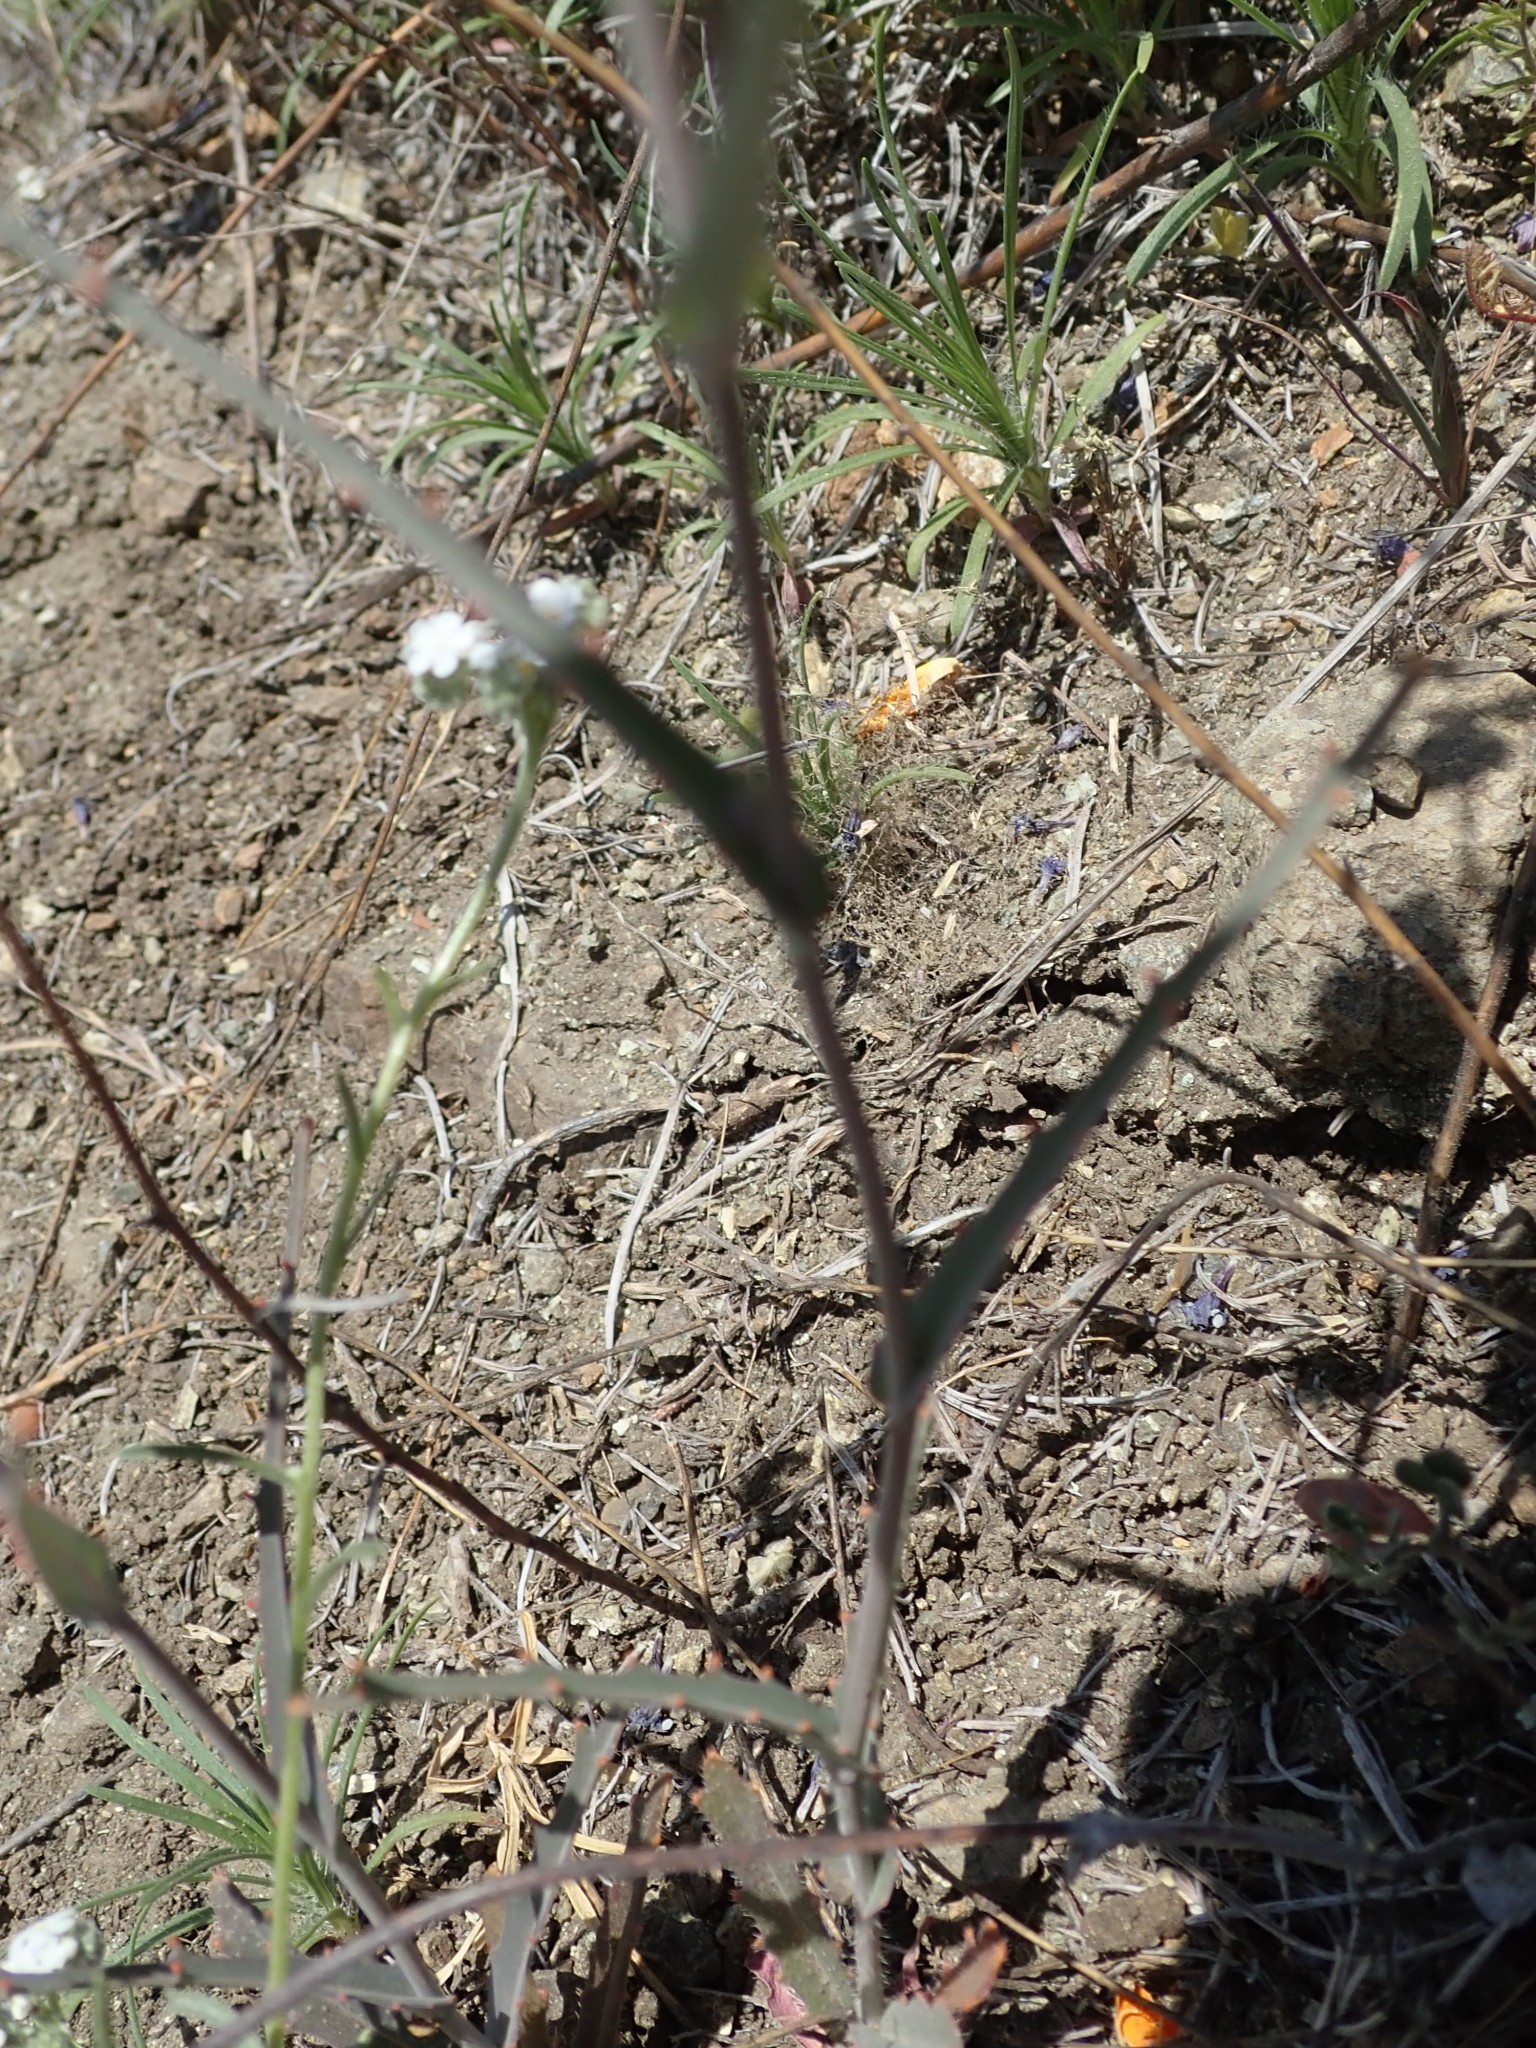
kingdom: Plantae
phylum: Tracheophyta
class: Magnoliopsida
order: Brassicales
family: Brassicaceae
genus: Streptanthus
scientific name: Streptanthus glandulosus
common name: Jewel-flower
